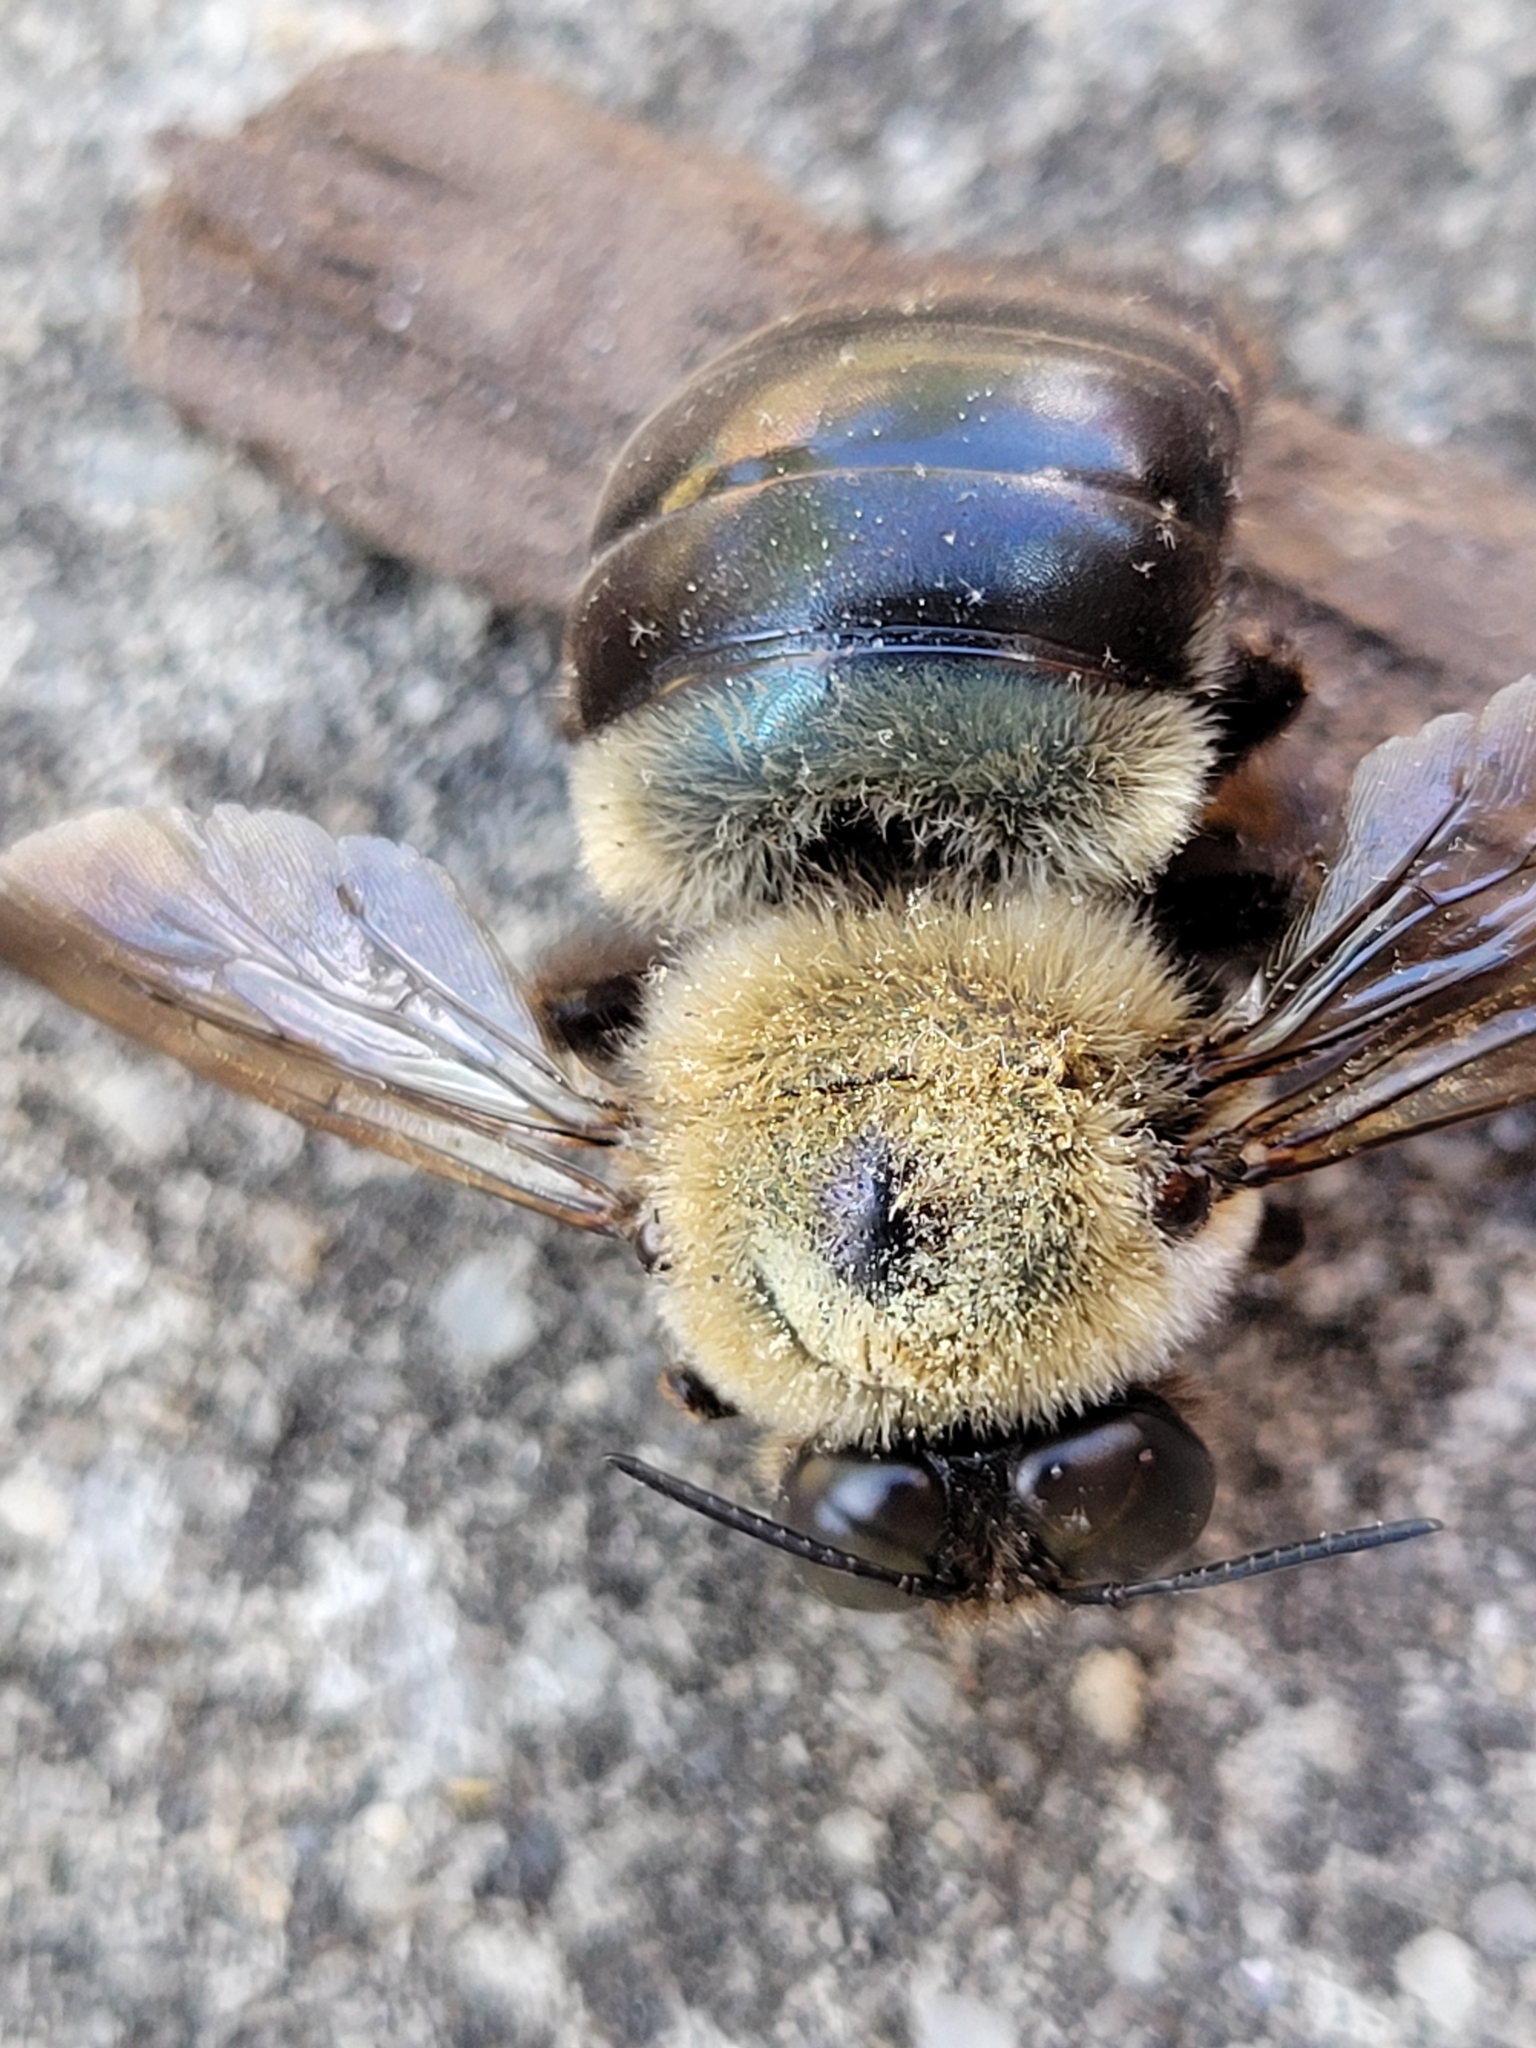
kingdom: Animalia
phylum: Arthropoda
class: Insecta
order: Hymenoptera
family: Apidae
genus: Xylocopa
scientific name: Xylocopa virginica
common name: Carpenter bee
